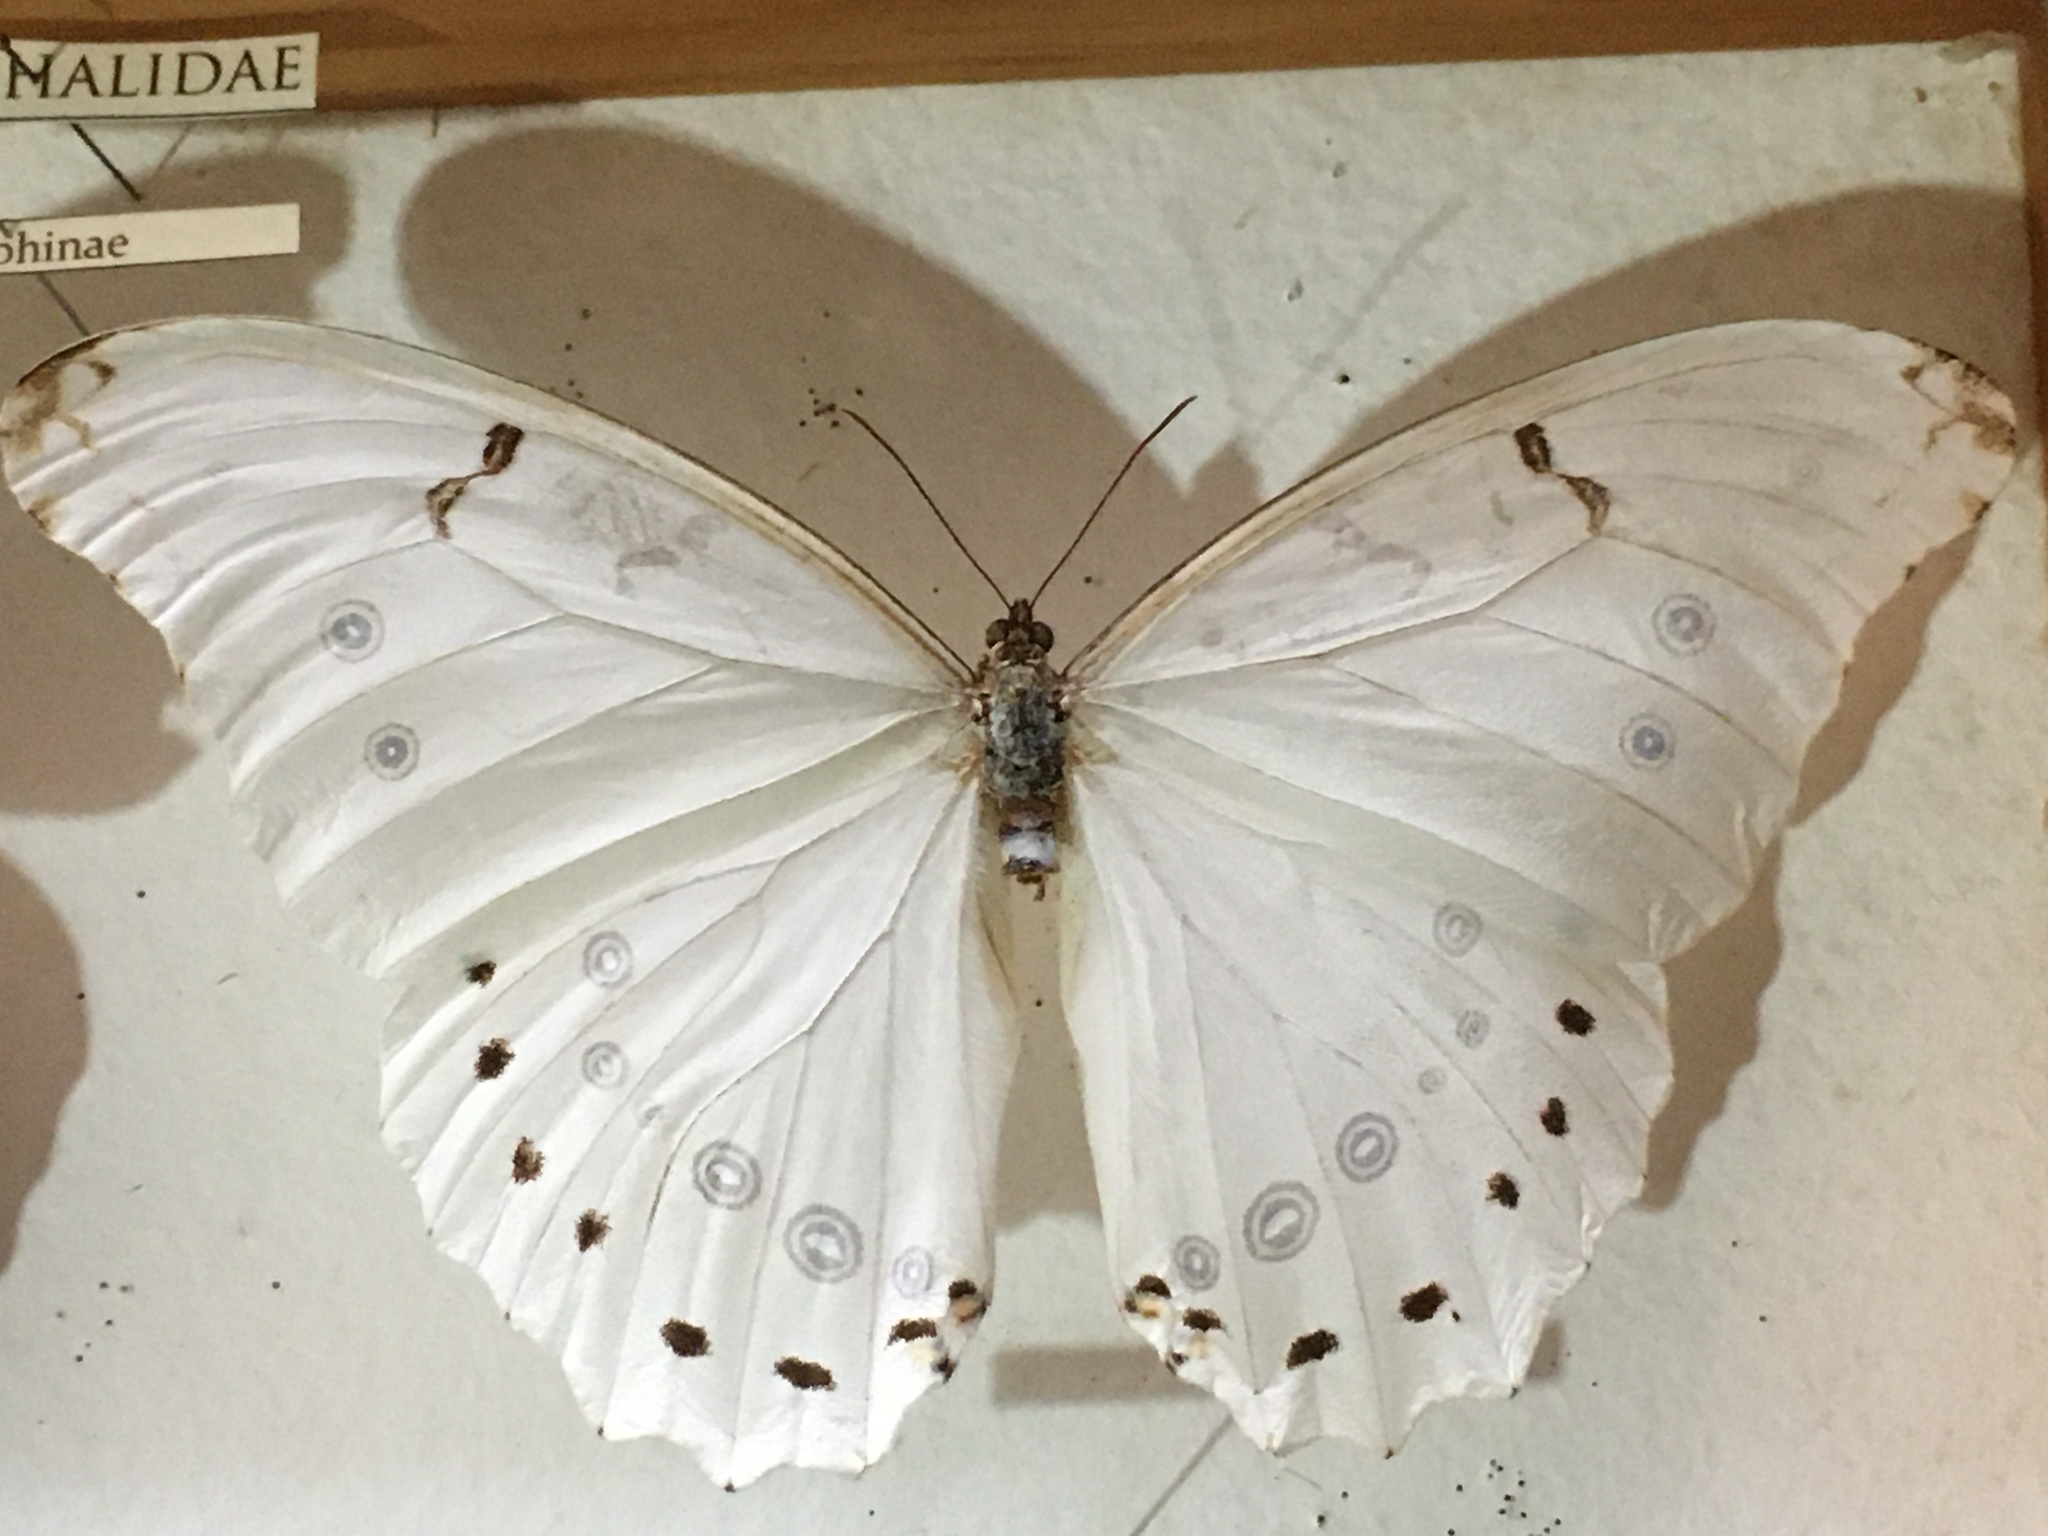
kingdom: Animalia
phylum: Arthropoda
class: Insecta
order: Lepidoptera
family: Nymphalidae
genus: Morpho
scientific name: Morpho polyphemus
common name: White morpho
